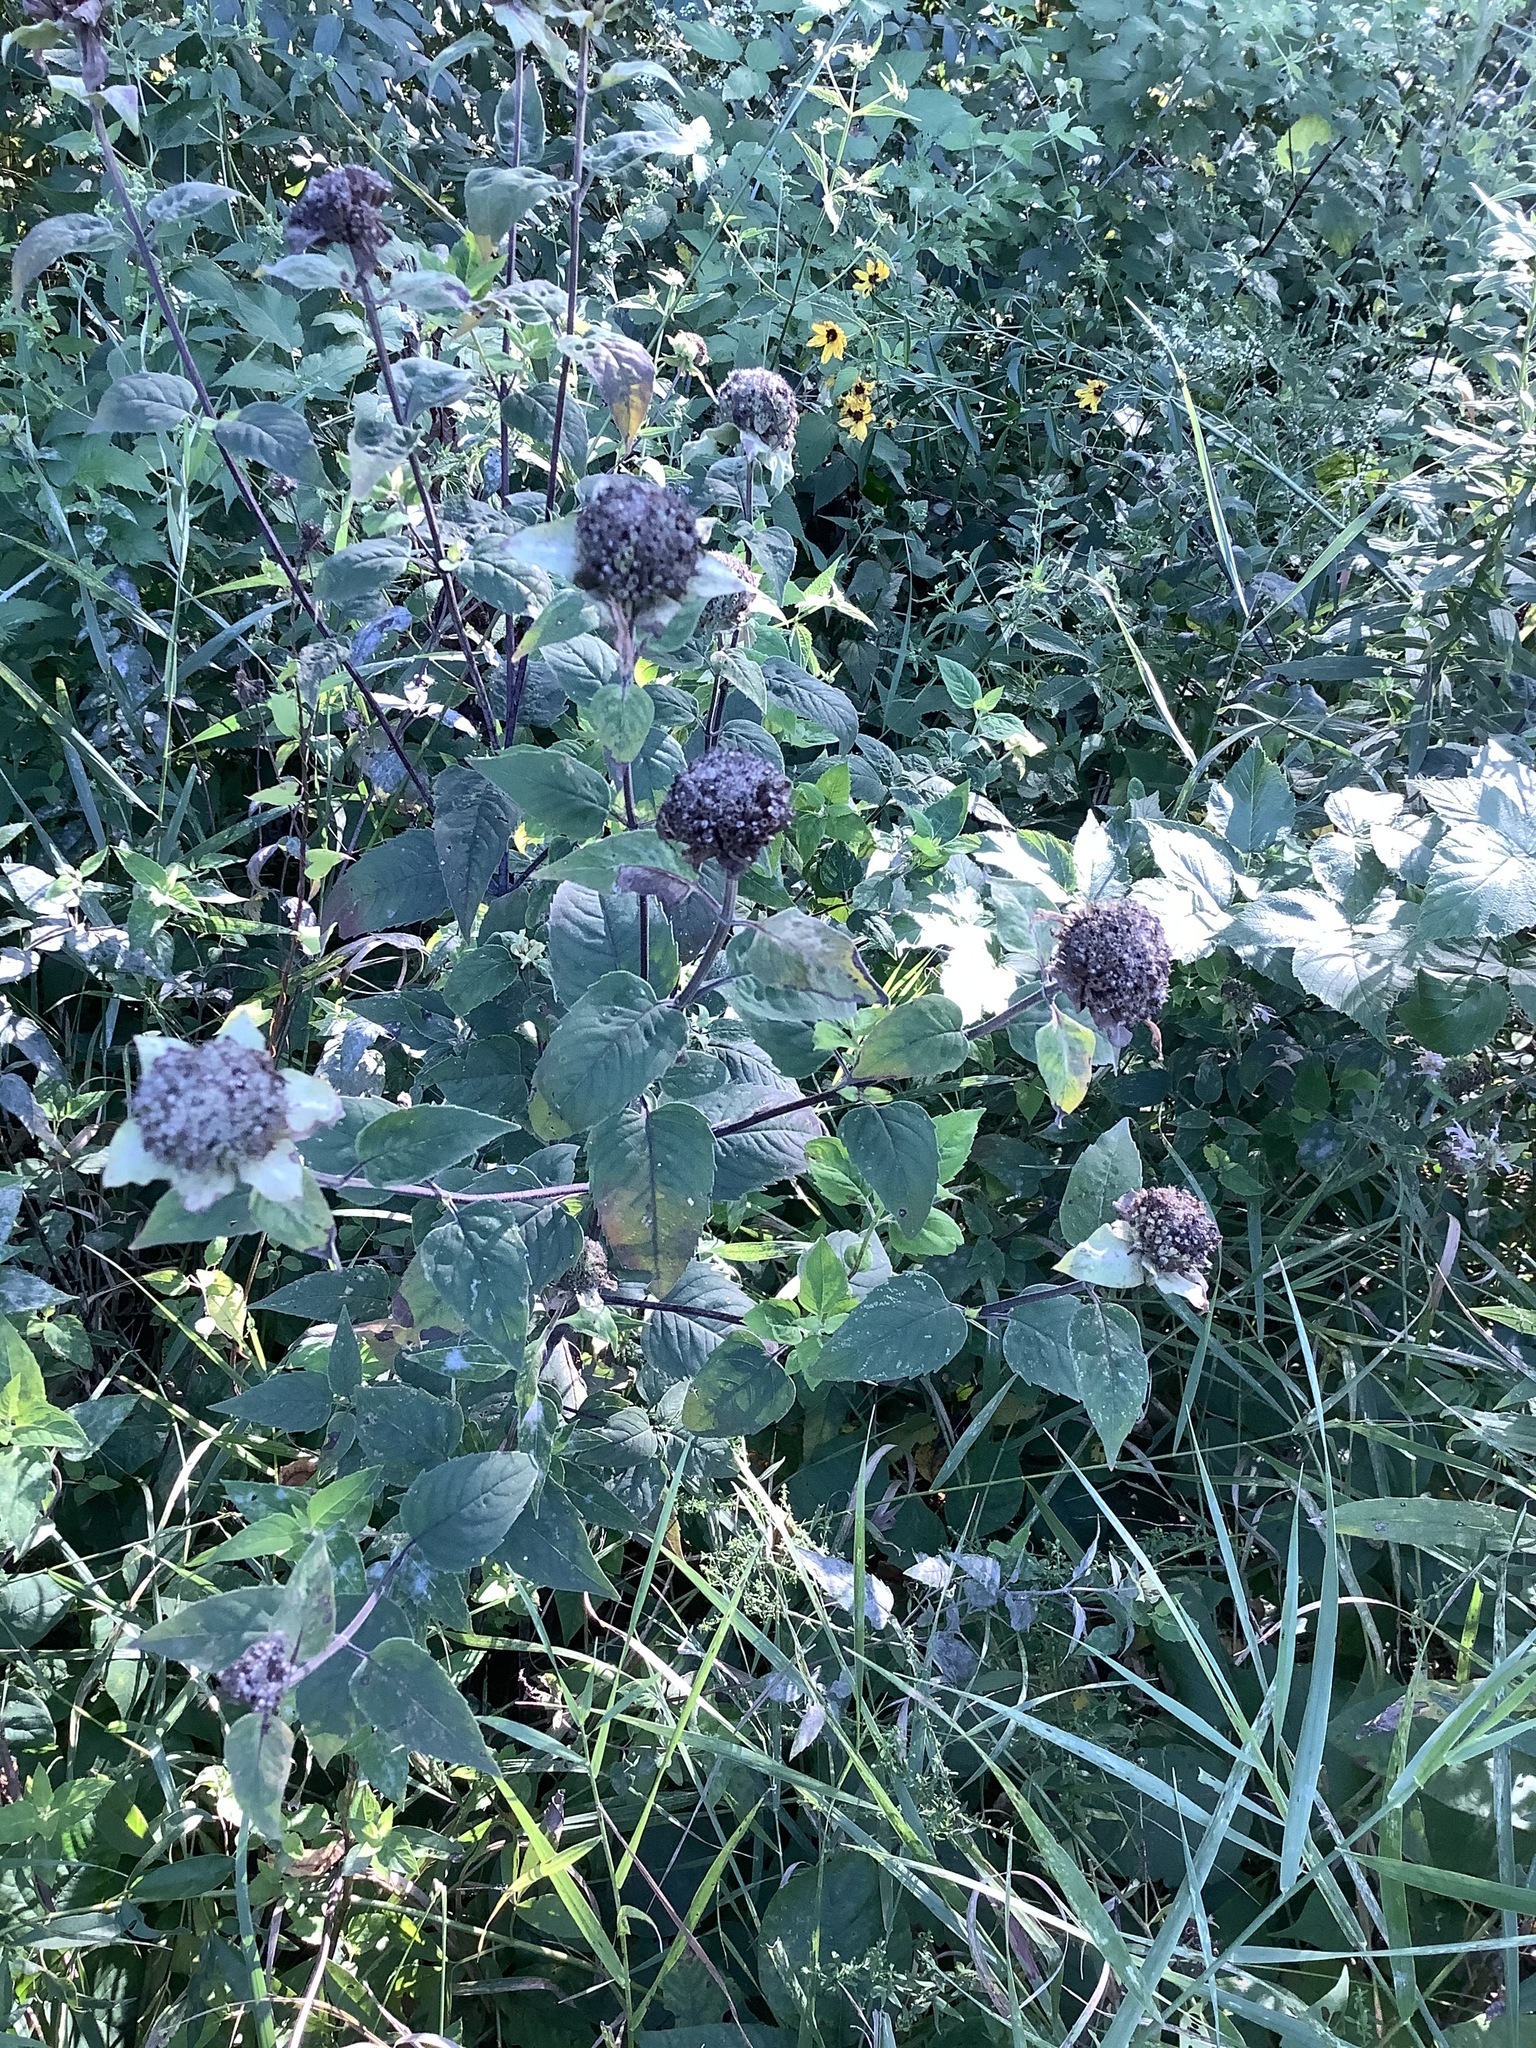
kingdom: Plantae
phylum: Tracheophyta
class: Magnoliopsida
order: Lamiales
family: Lamiaceae
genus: Monarda
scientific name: Monarda fistulosa
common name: Purple beebalm
